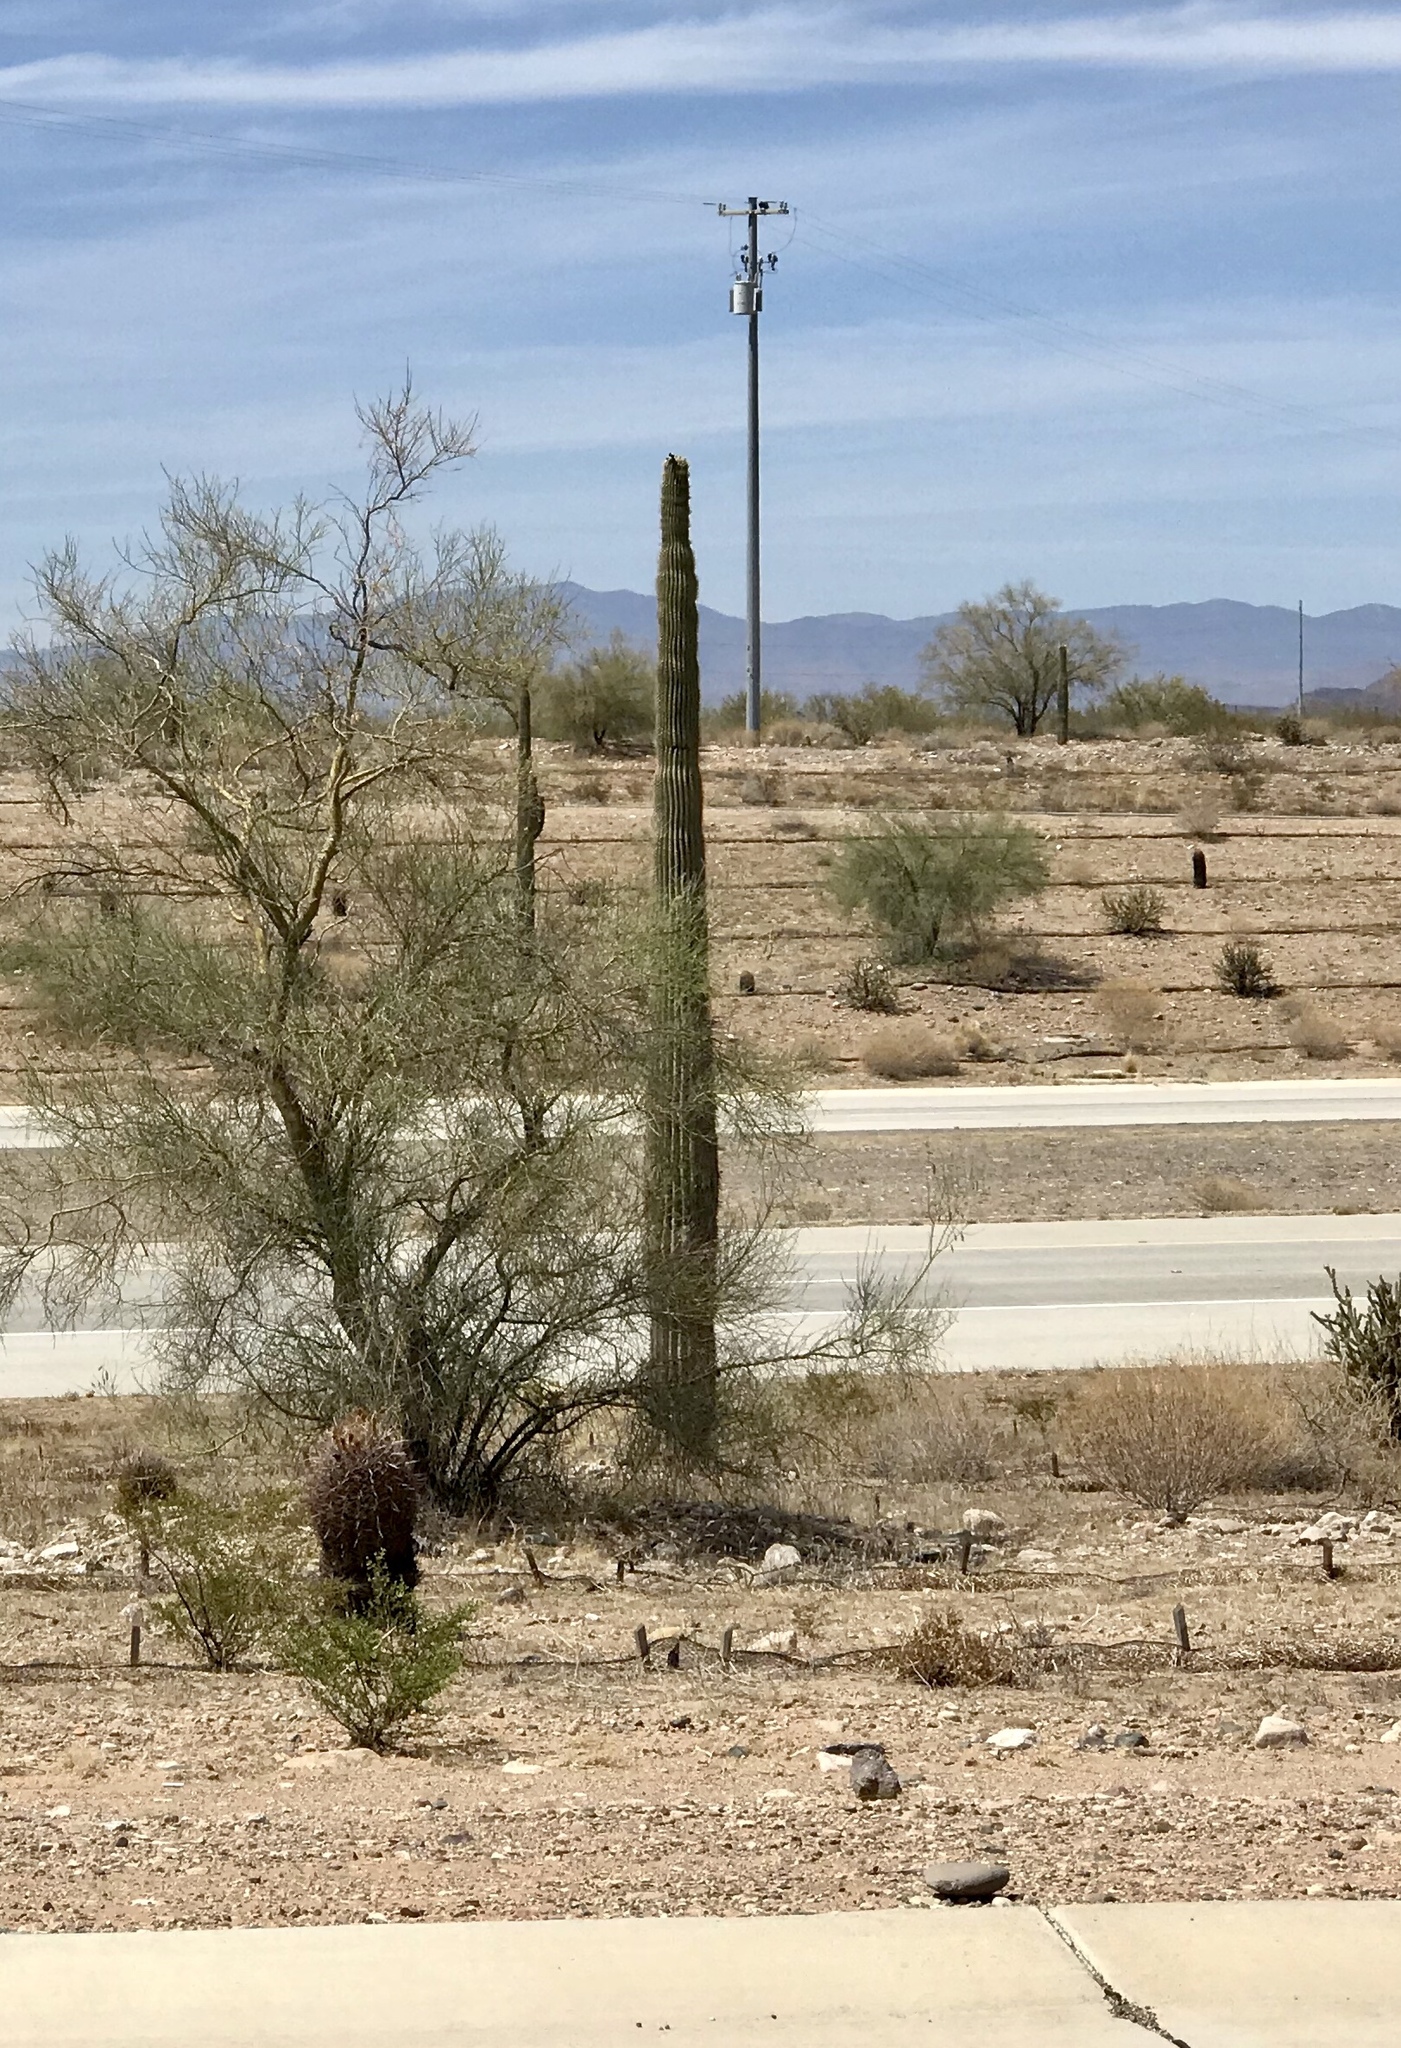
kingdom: Plantae
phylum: Tracheophyta
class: Magnoliopsida
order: Caryophyllales
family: Cactaceae
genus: Carnegiea
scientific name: Carnegiea gigantea
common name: Saguaro
